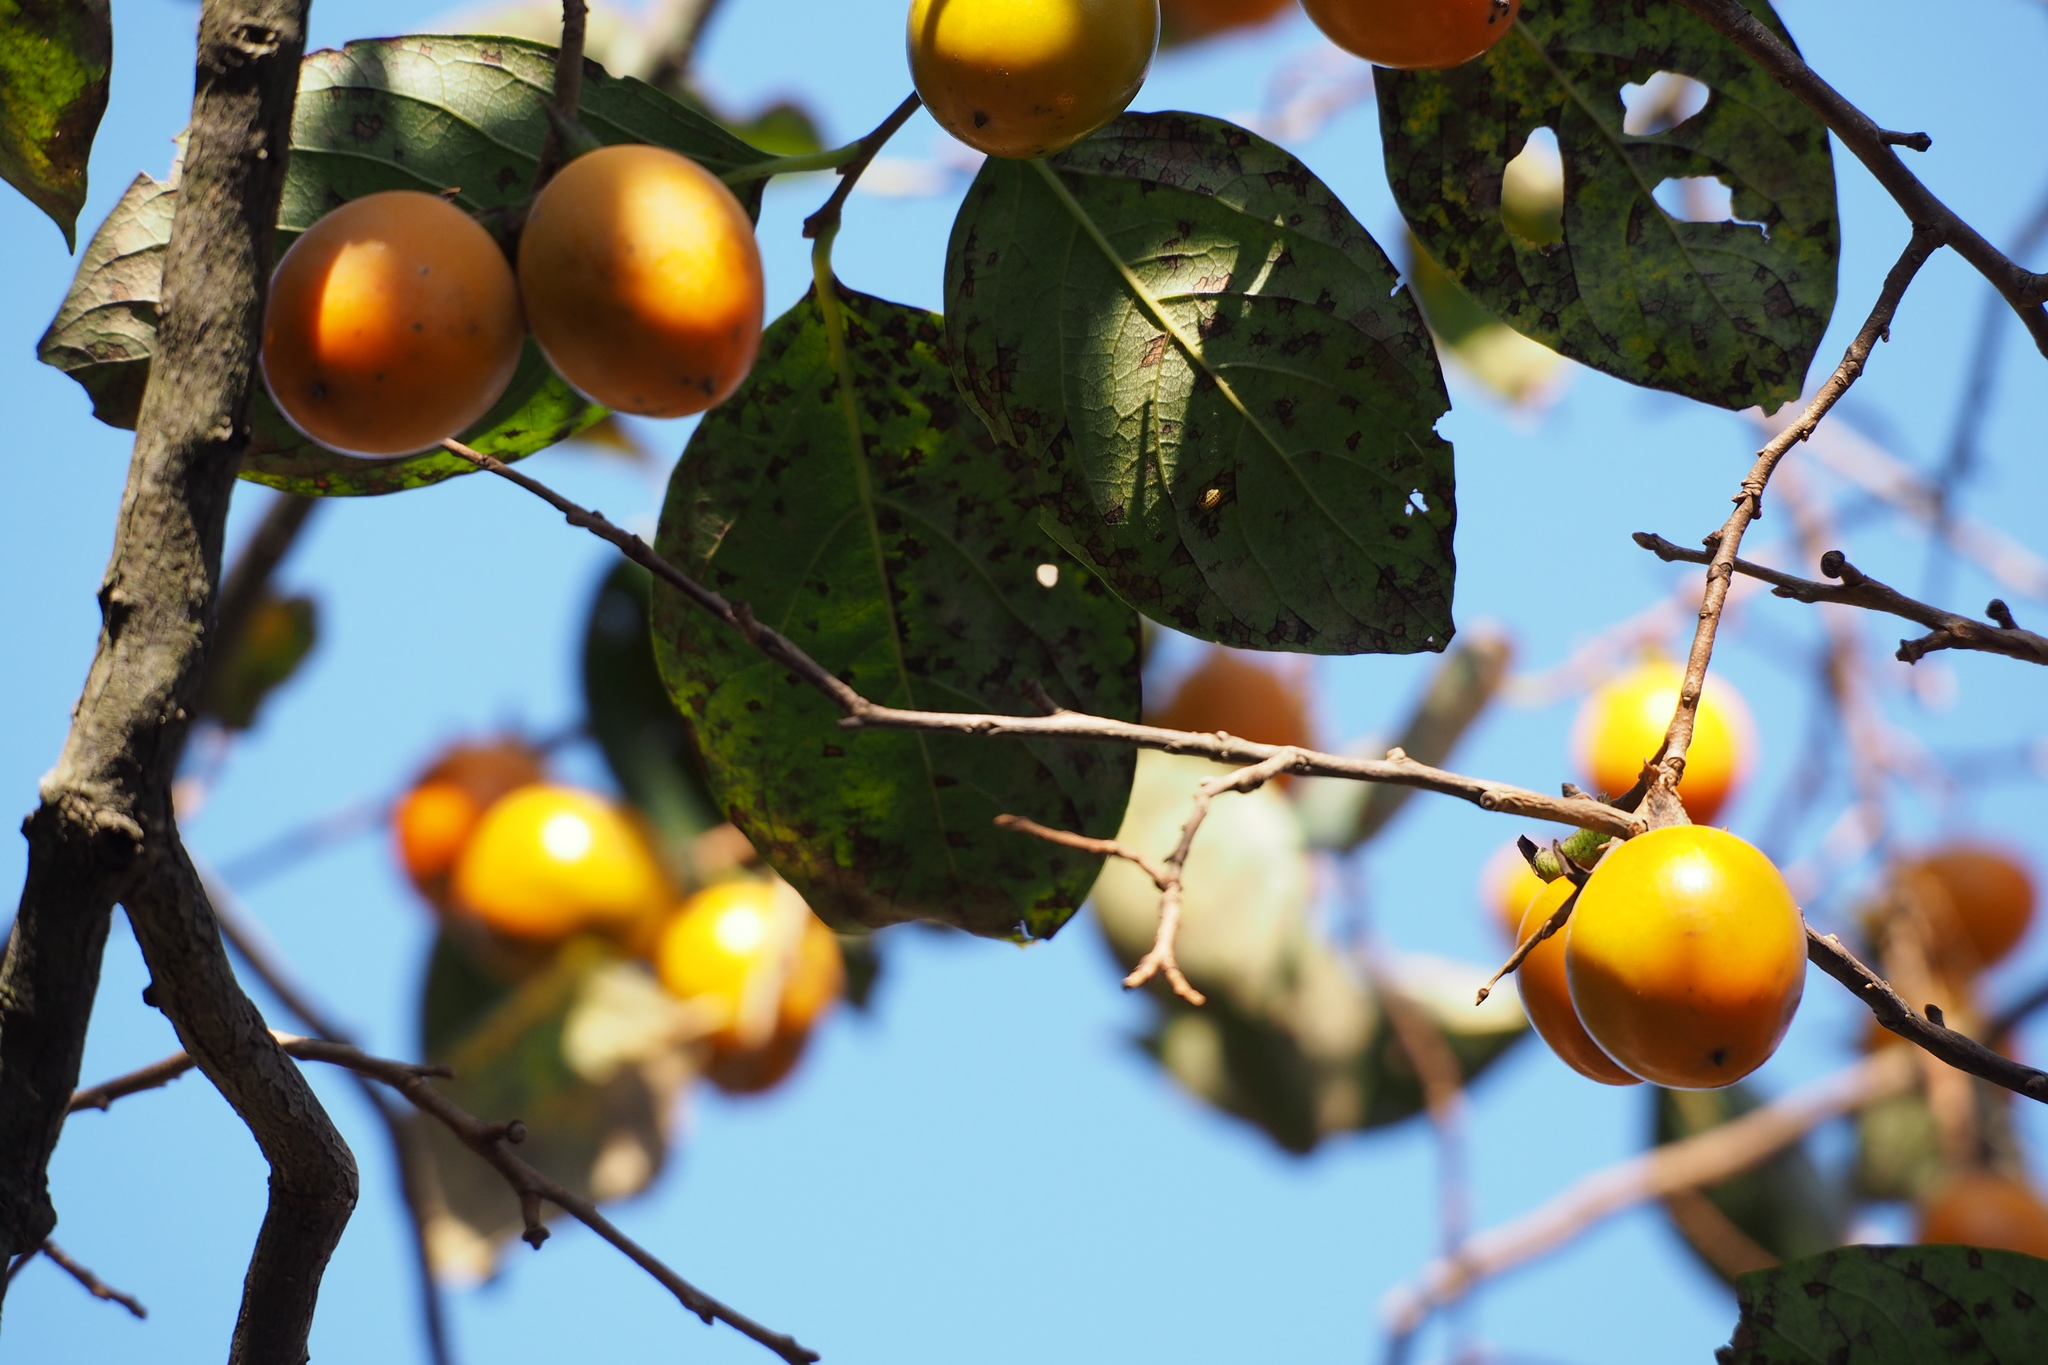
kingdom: Plantae
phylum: Tracheophyta
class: Magnoliopsida
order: Ericales
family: Ebenaceae
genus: Diospyros
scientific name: Diospyros kaki
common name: Persimmon
